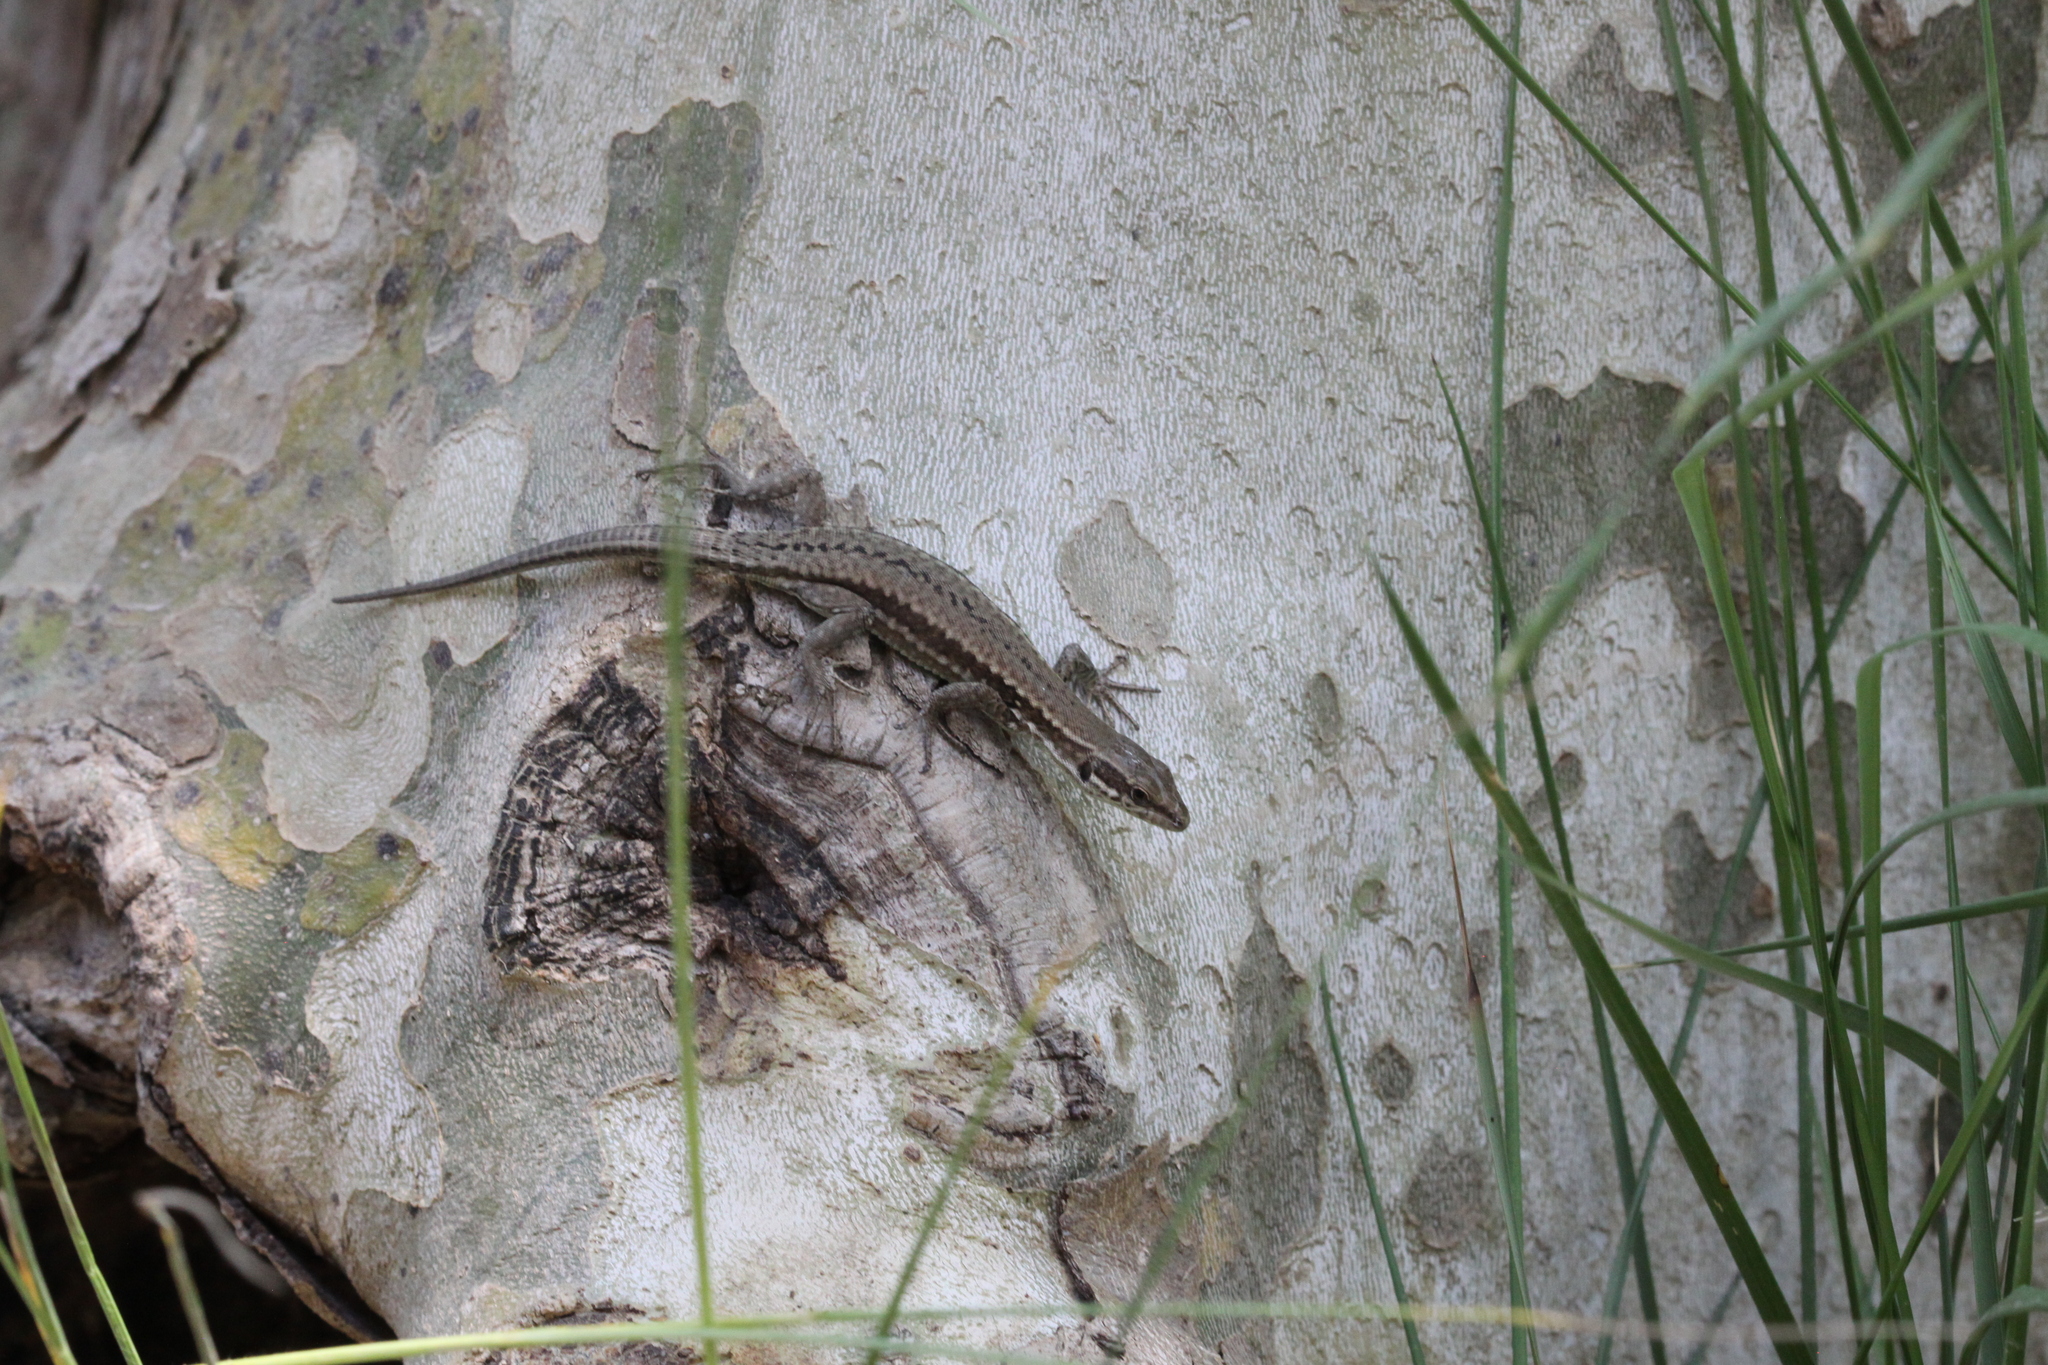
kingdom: Animalia
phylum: Chordata
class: Squamata
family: Lacertidae
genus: Podarcis
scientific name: Podarcis muralis
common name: Common wall lizard
